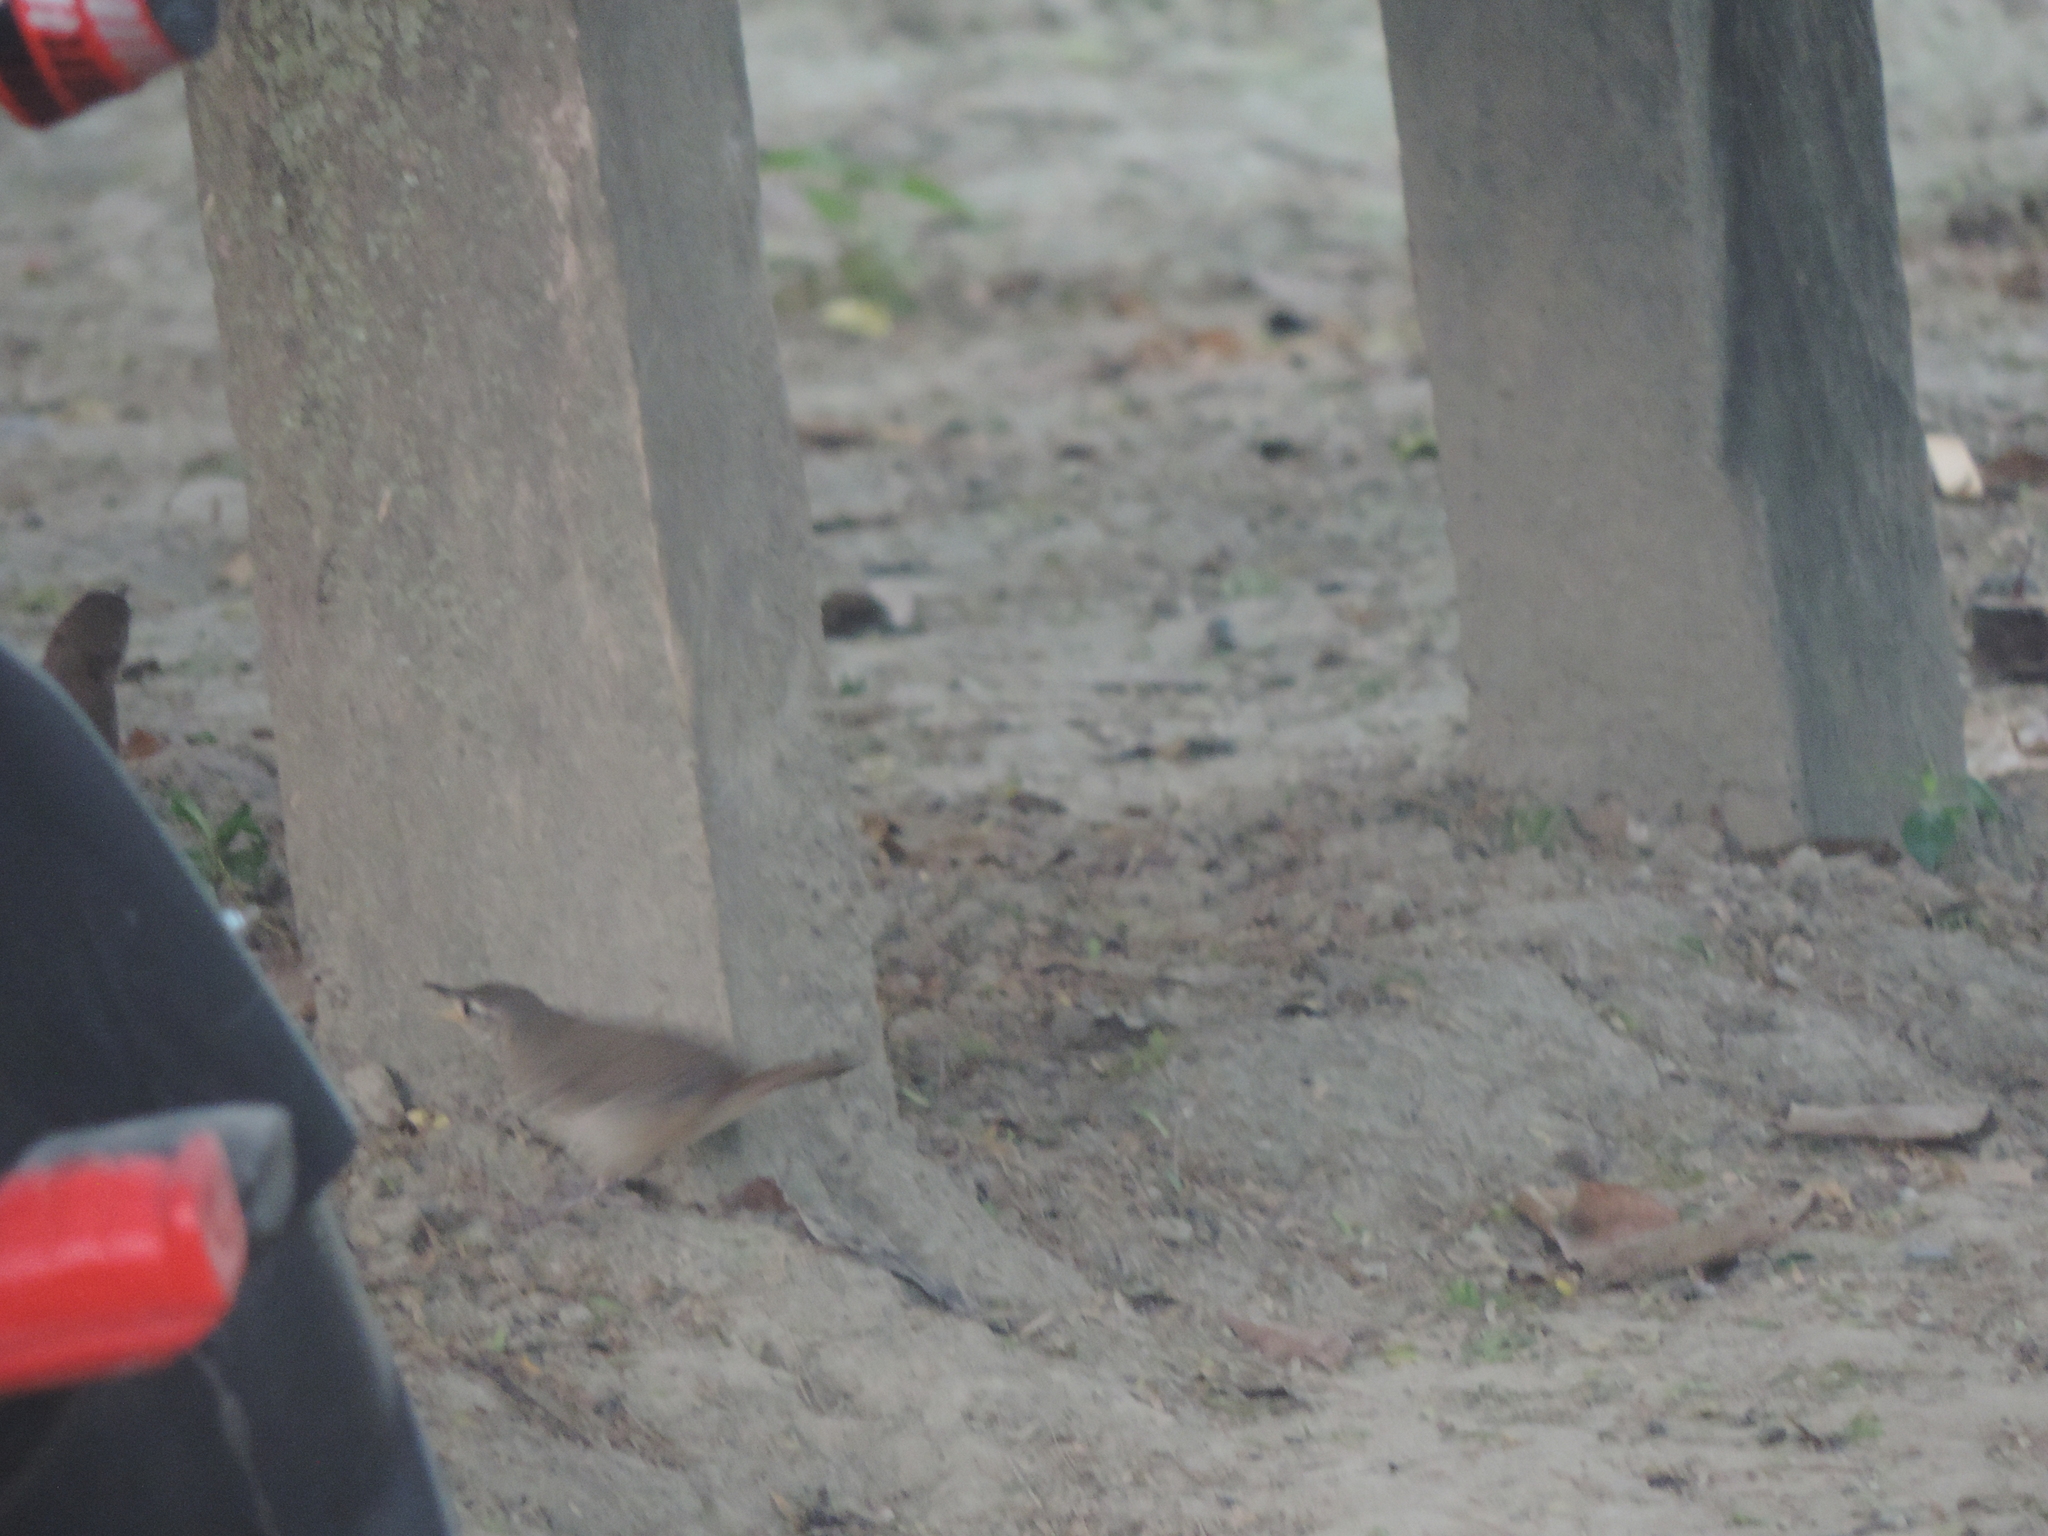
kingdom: Animalia
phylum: Chordata
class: Aves
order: Passeriformes
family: Troglodytidae
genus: Troglodytes
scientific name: Troglodytes aedon
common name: House wren
